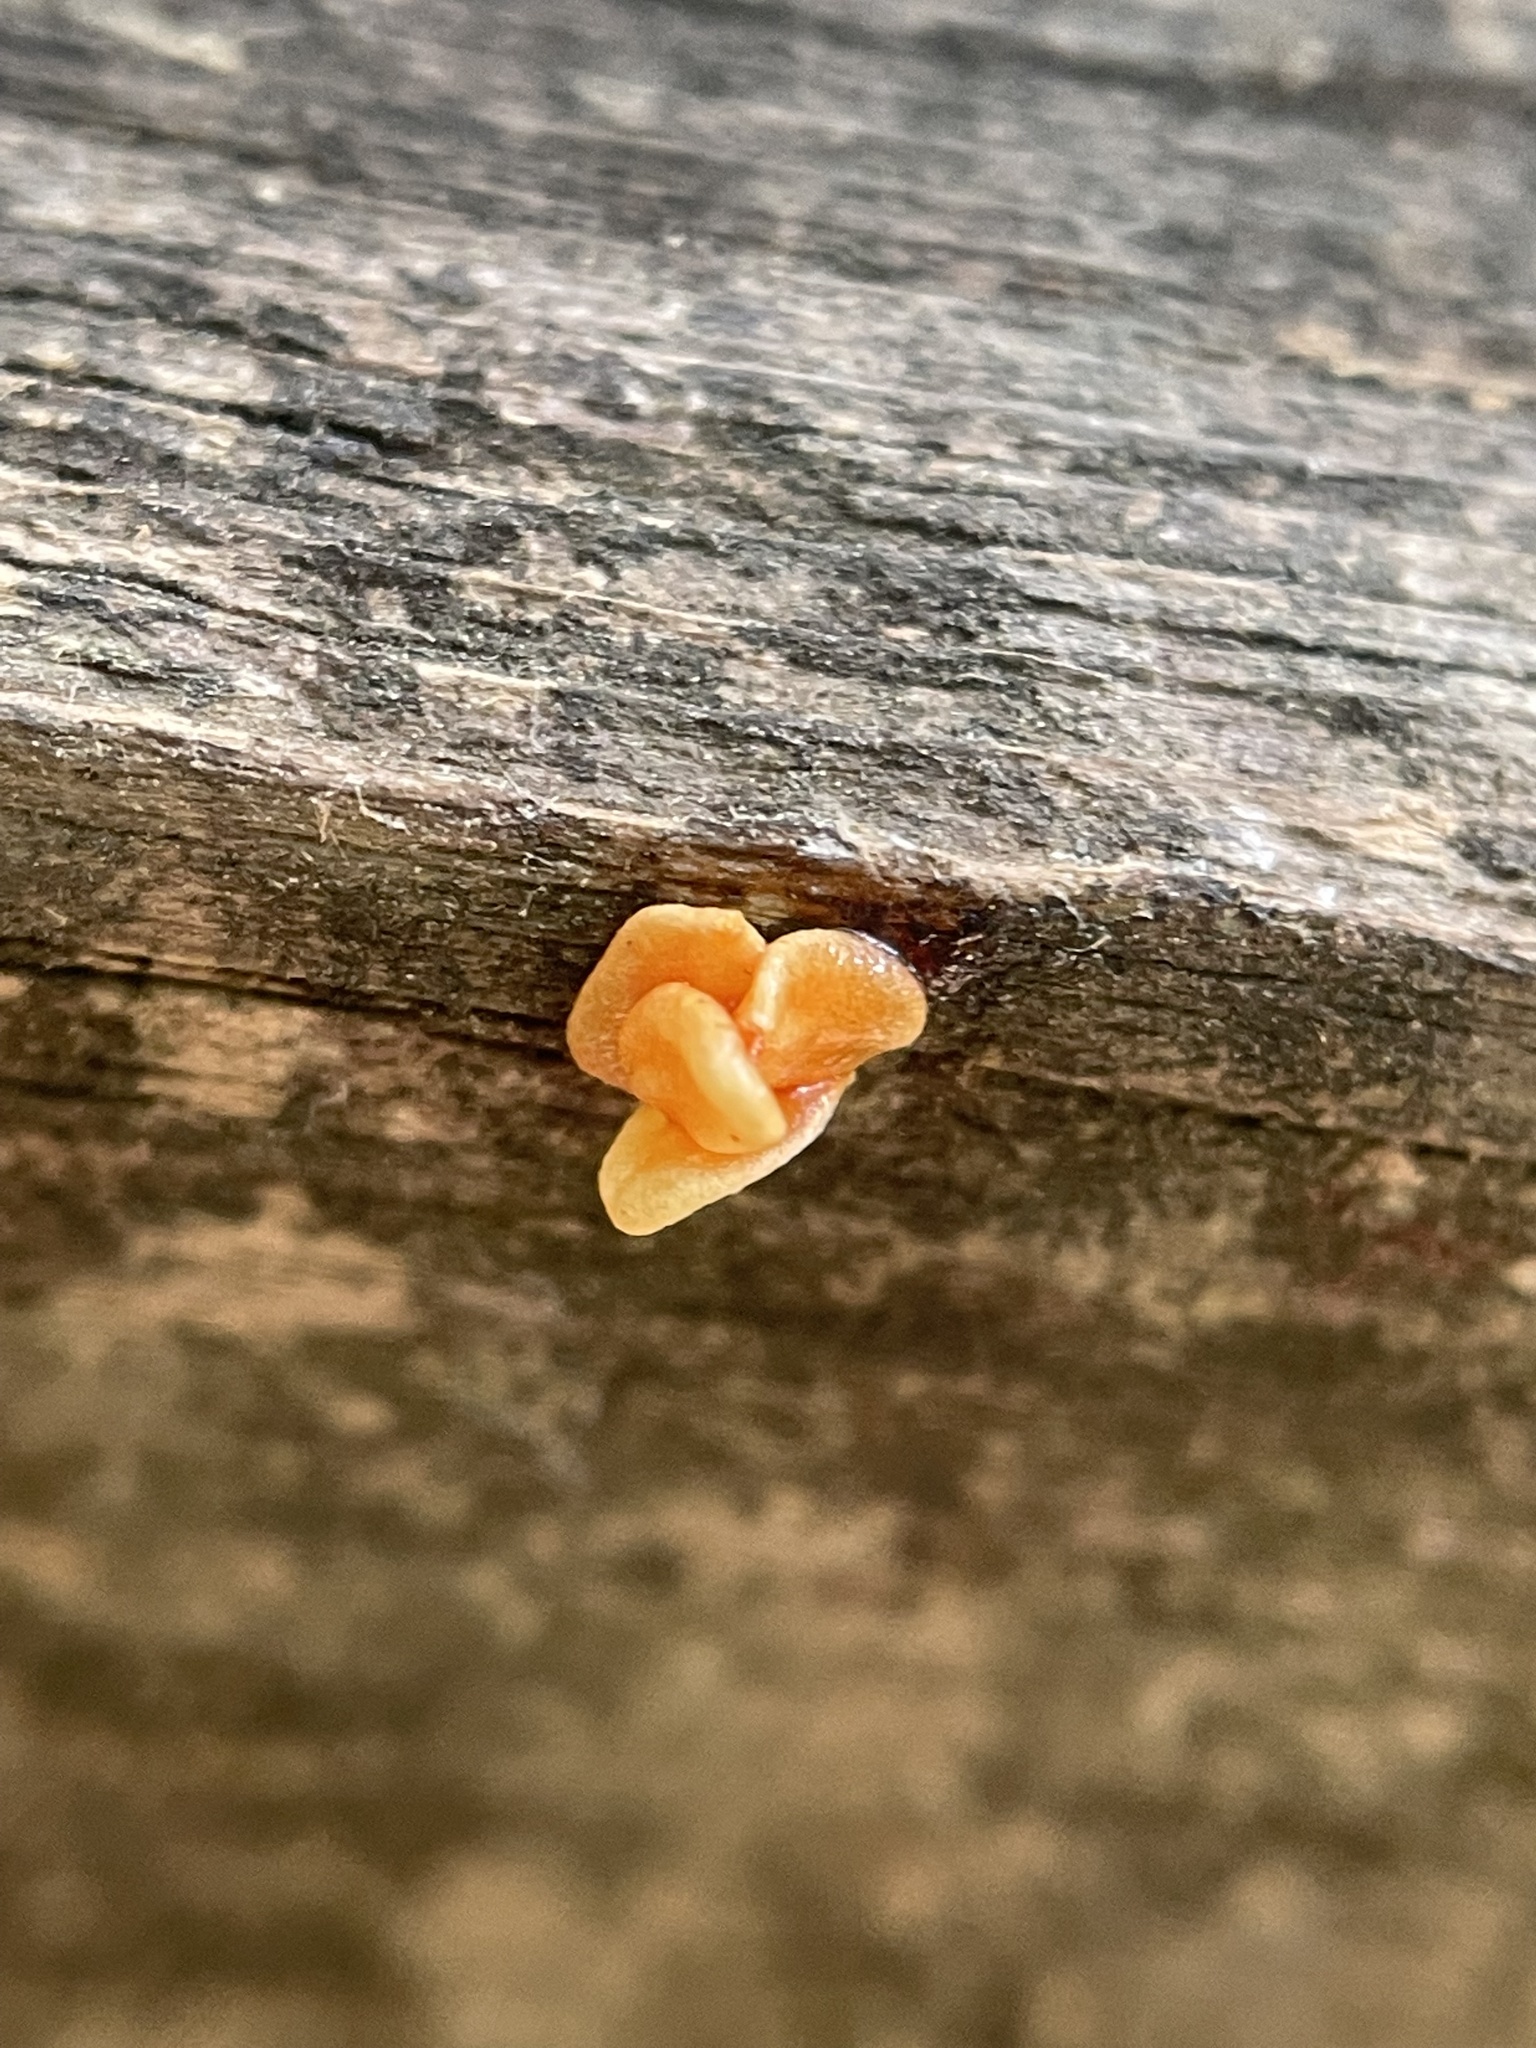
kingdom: Fungi
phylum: Basidiomycota
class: Dacrymycetes
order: Dacrymycetales
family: Dacrymycetaceae
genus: Dacrymyces
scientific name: Dacrymyces stillatus
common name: Common jelly spot
